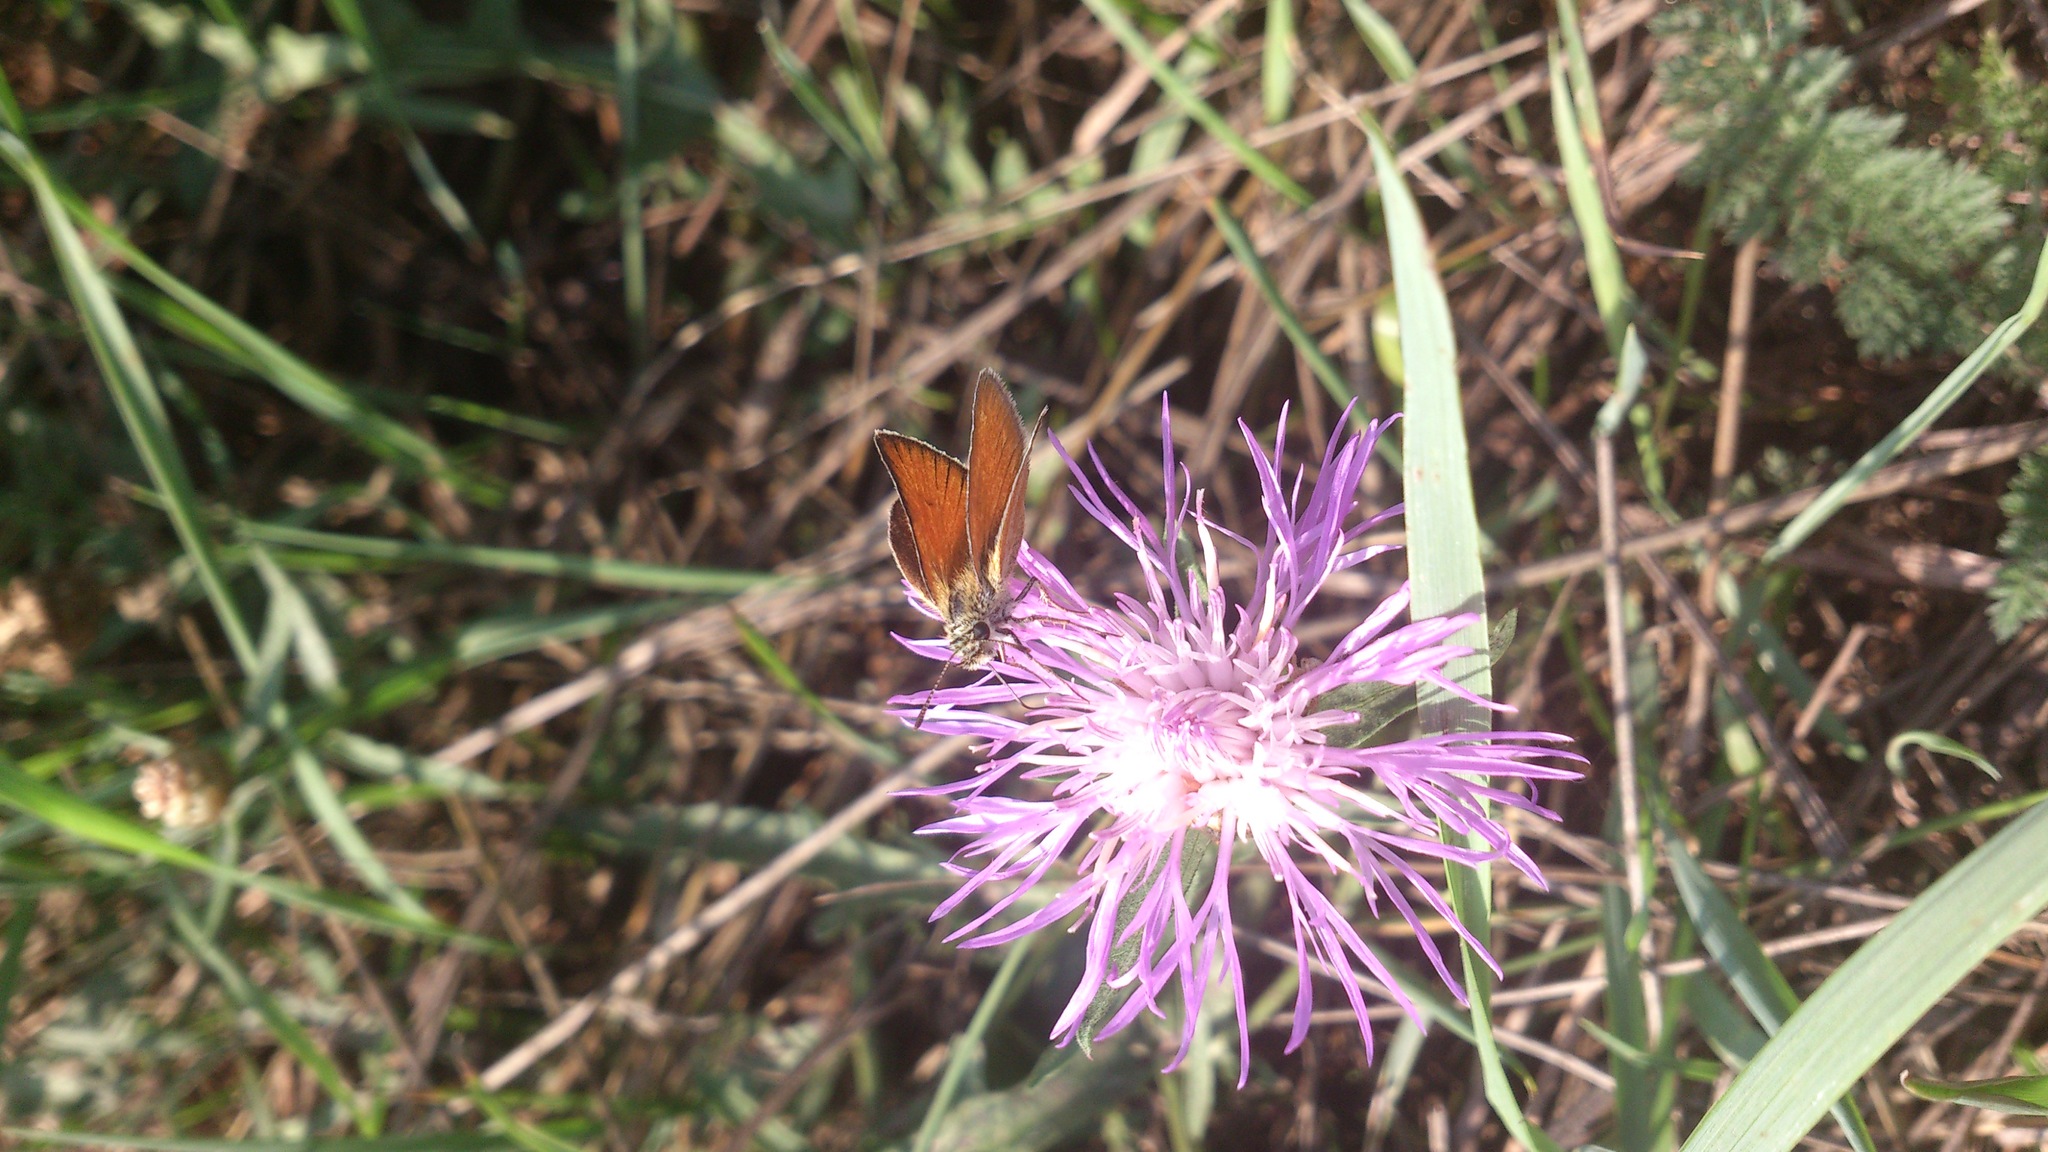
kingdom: Animalia
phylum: Arthropoda
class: Insecta
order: Lepidoptera
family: Hesperiidae
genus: Thymelicus
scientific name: Thymelicus lineola
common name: Essex skipper
